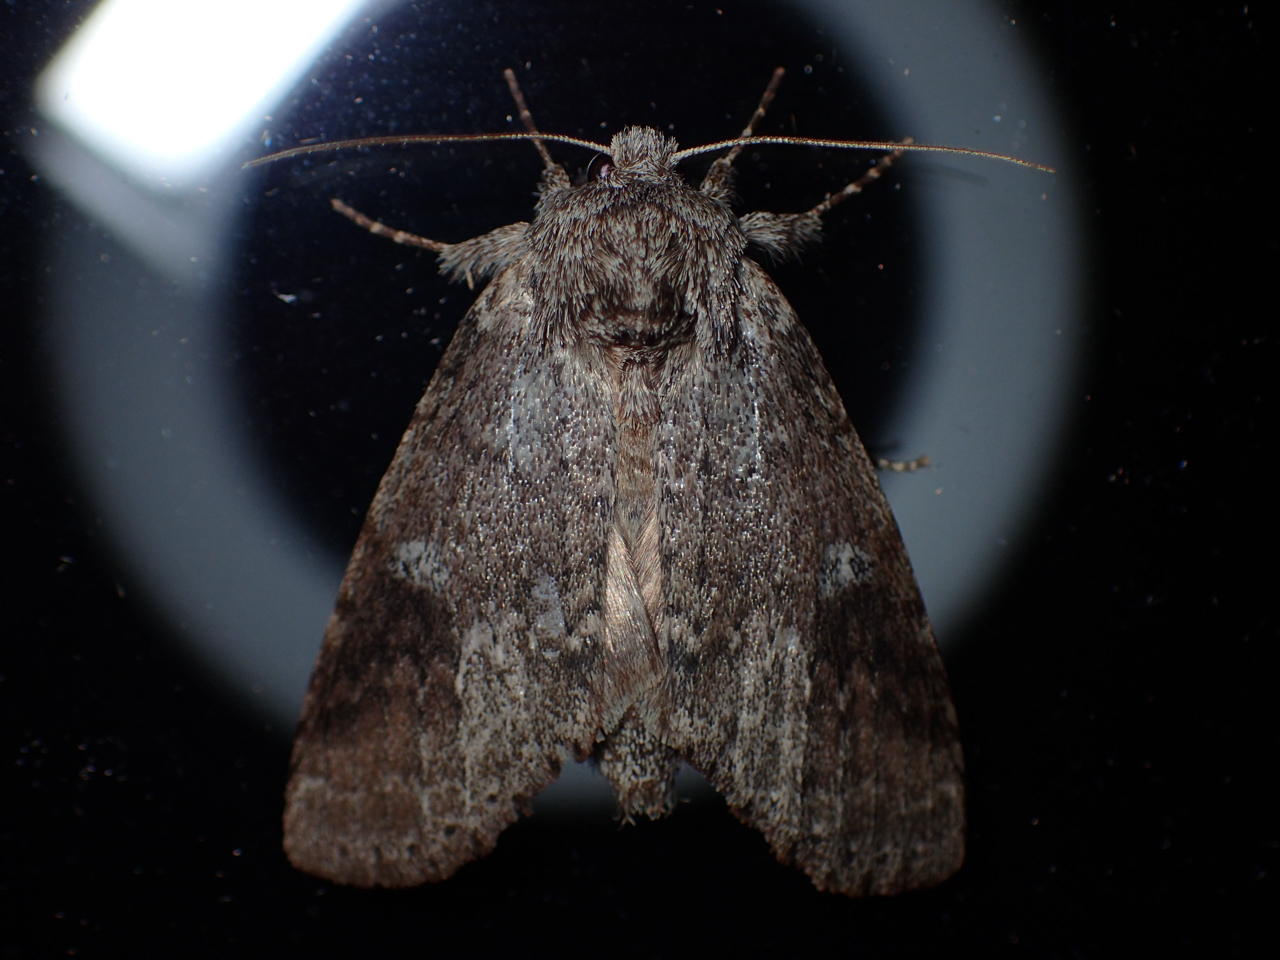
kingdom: Animalia
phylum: Arthropoda
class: Insecta
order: Lepidoptera
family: Notodontidae
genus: Lochmaeus
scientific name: Lochmaeus manteo
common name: Variable oakleaf caterpillar moth
